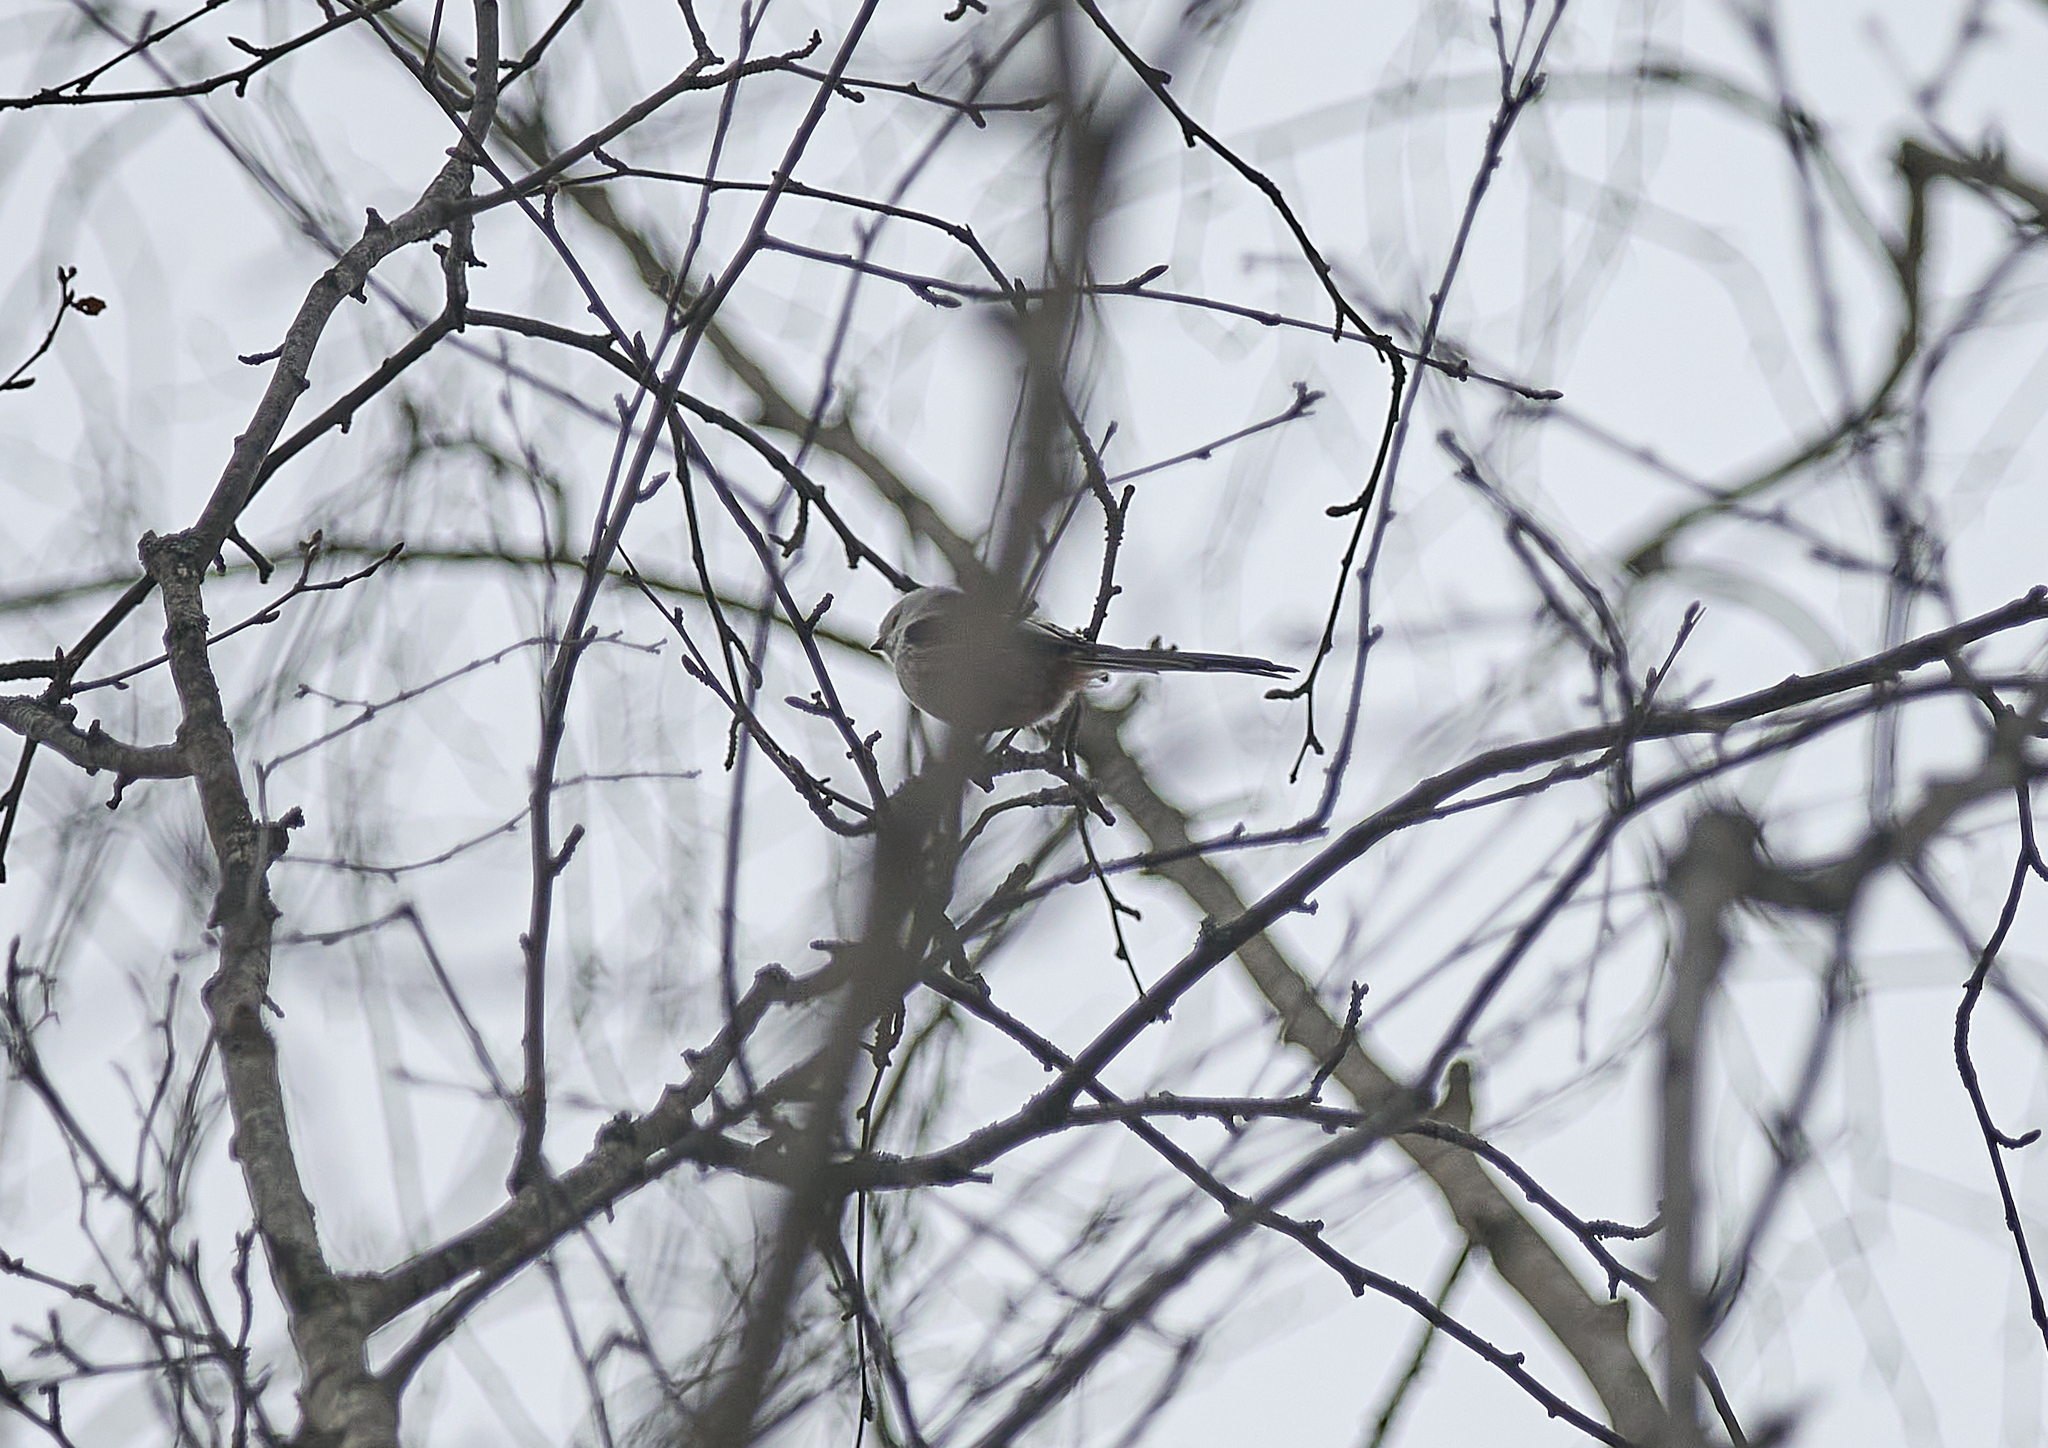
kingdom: Animalia
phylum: Chordata
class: Aves
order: Passeriformes
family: Aegithalidae
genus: Aegithalos
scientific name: Aegithalos caudatus
